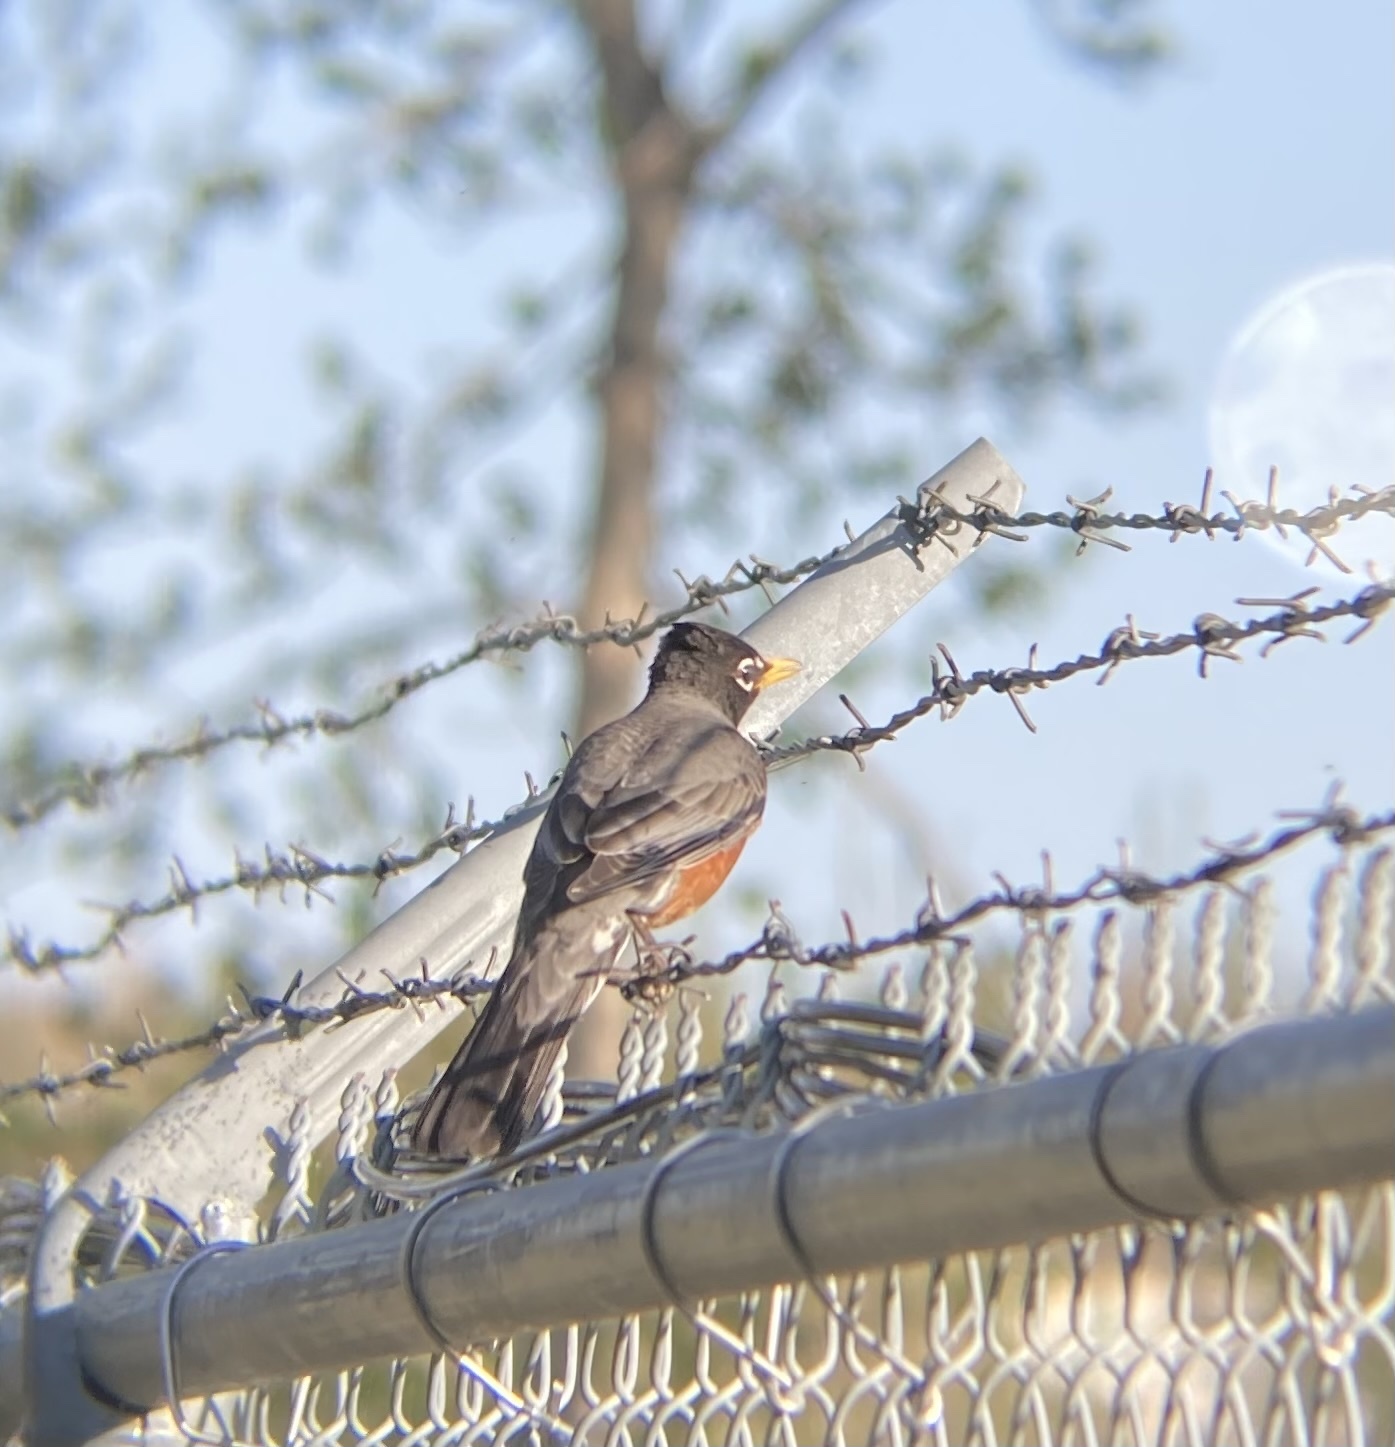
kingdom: Animalia
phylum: Chordata
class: Aves
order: Passeriformes
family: Turdidae
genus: Turdus
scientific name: Turdus migratorius
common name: American robin
